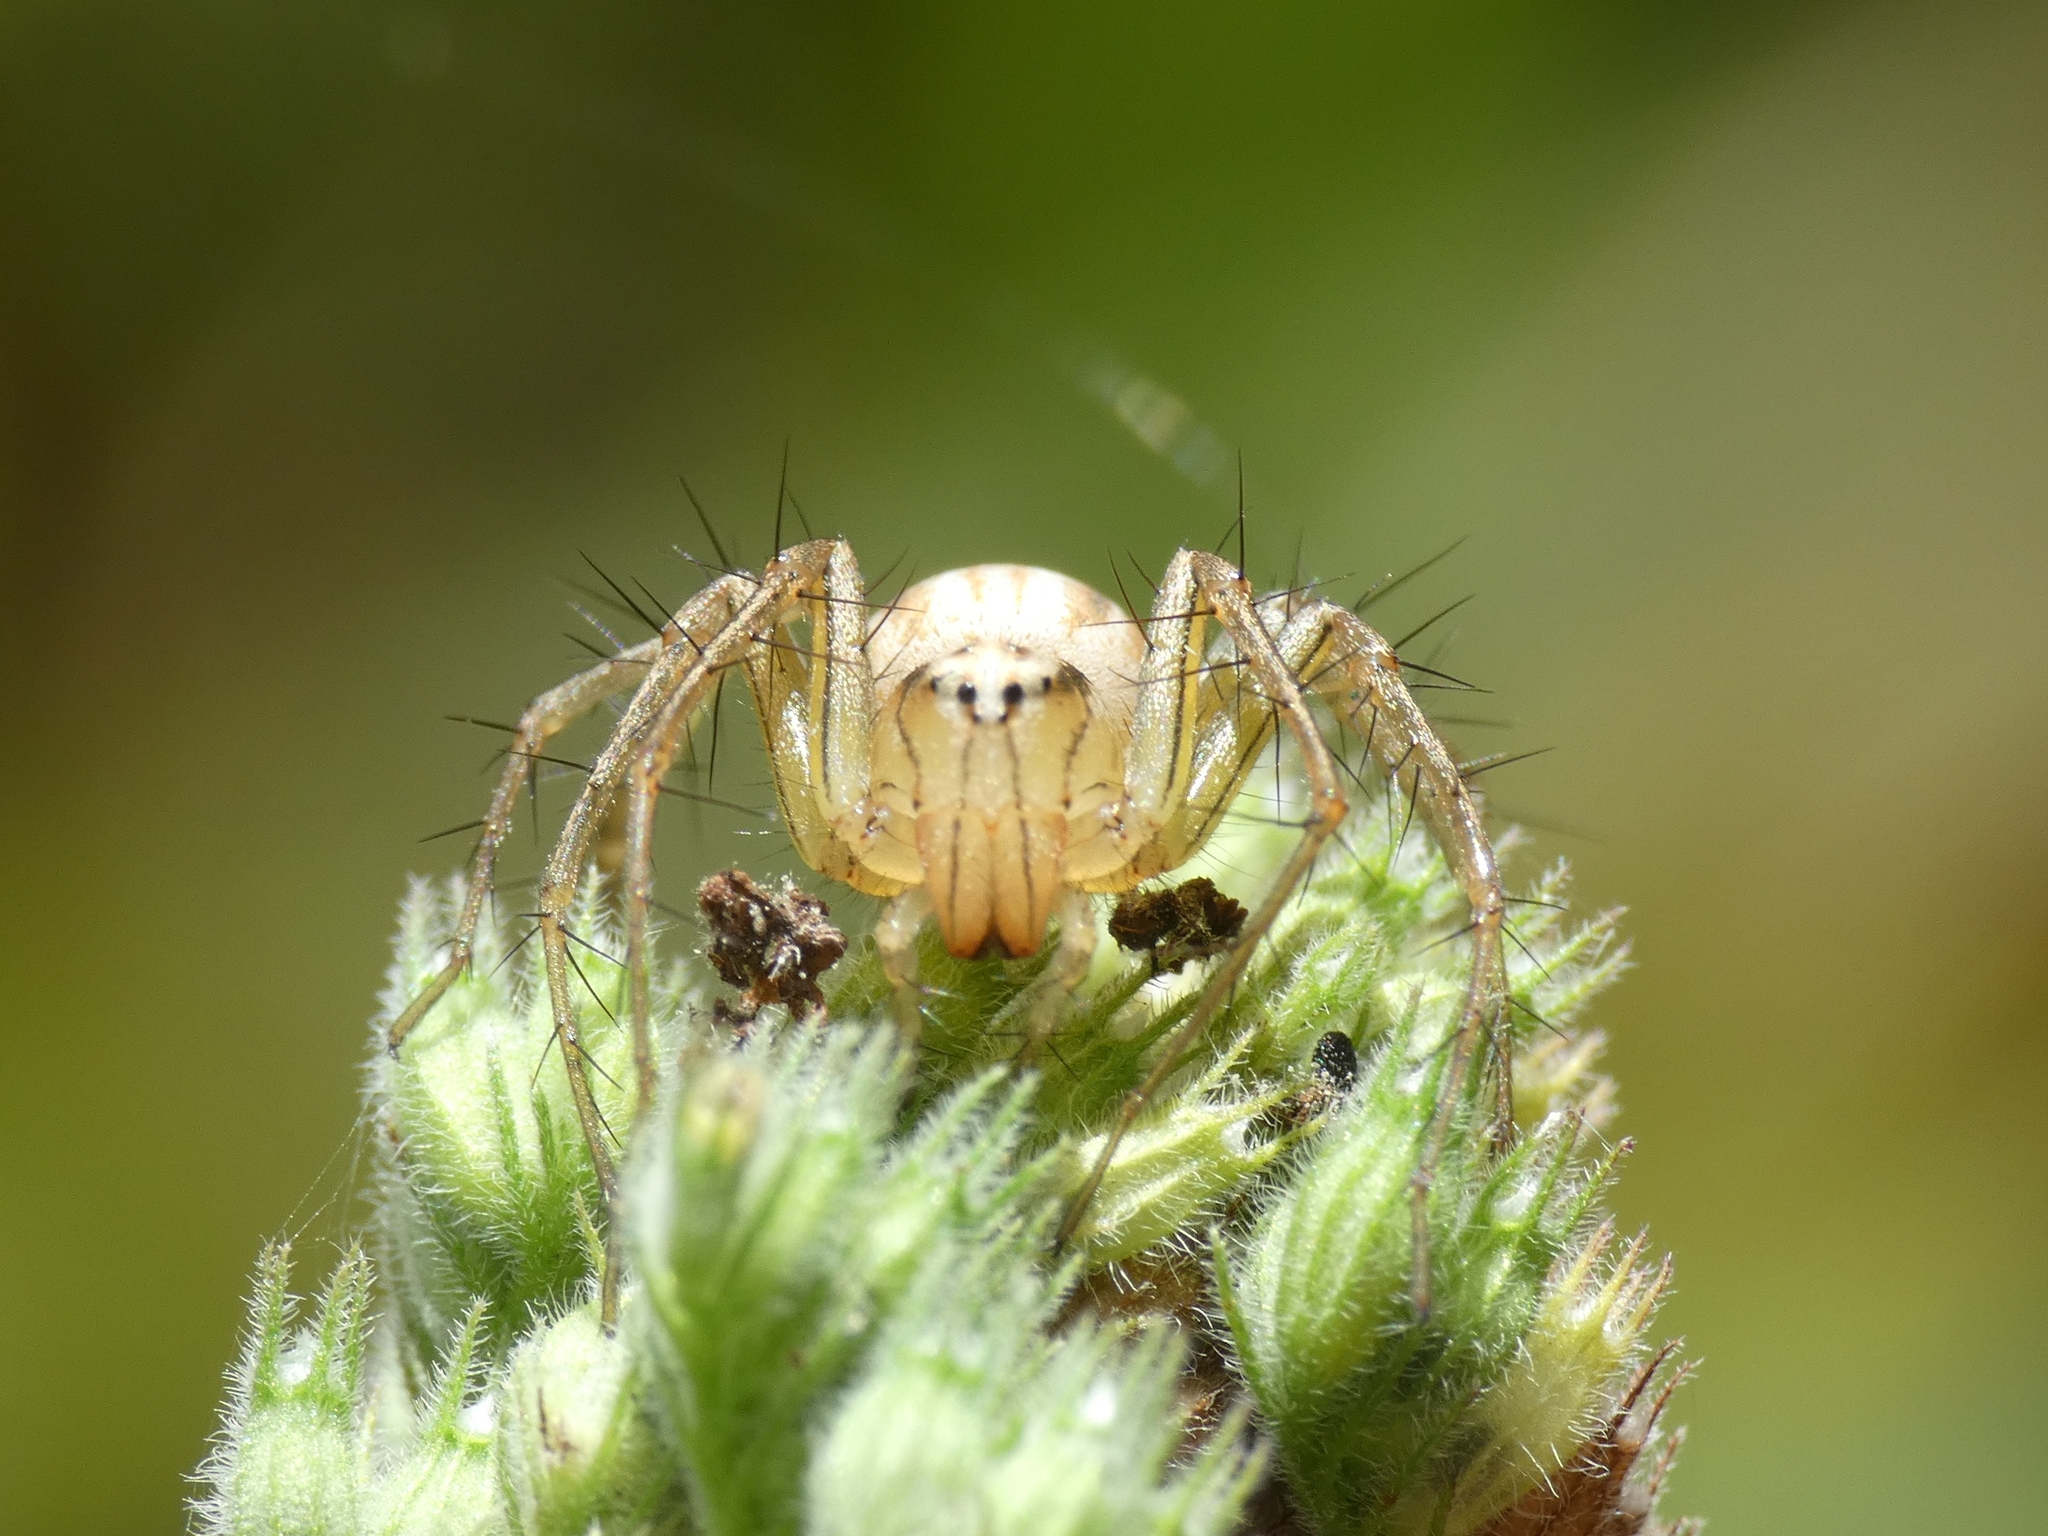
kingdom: Animalia
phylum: Arthropoda
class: Arachnida
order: Araneae
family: Oxyopidae
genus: Oxyopes
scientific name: Oxyopes
